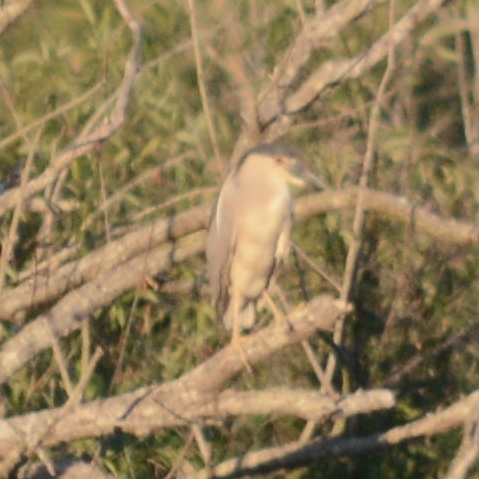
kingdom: Animalia
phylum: Chordata
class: Aves
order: Pelecaniformes
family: Ardeidae
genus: Nycticorax
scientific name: Nycticorax nycticorax
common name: Black-crowned night heron
